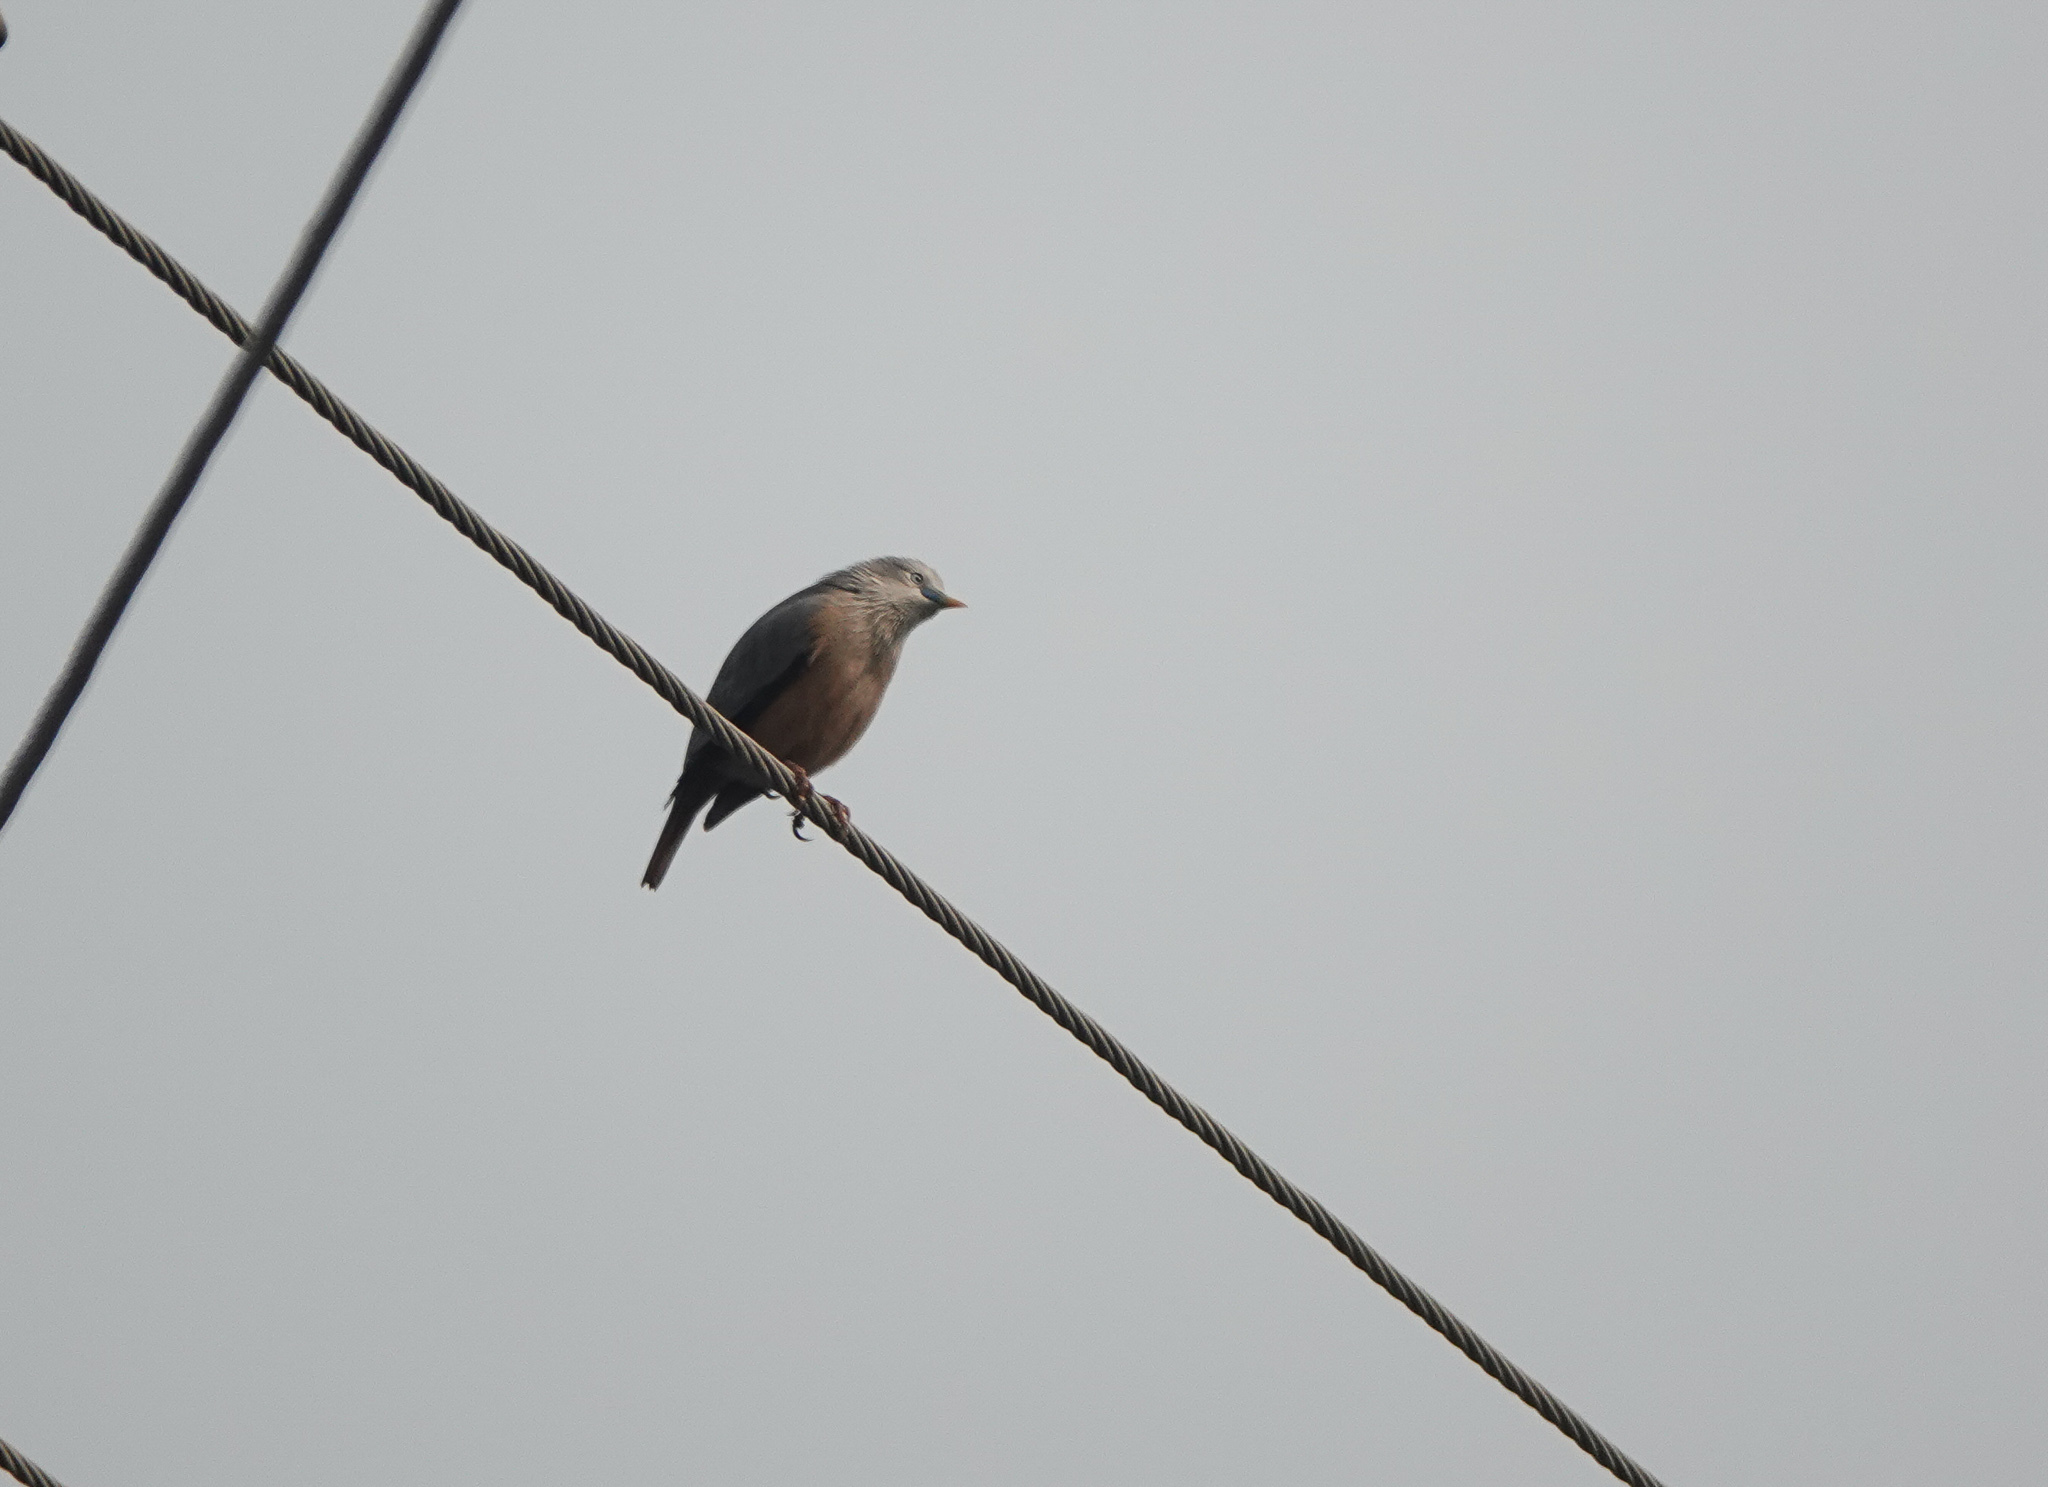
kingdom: Animalia
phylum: Chordata
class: Aves
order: Passeriformes
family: Sturnidae
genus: Sturnia
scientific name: Sturnia malabarica
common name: Chestnut-tailed starling
